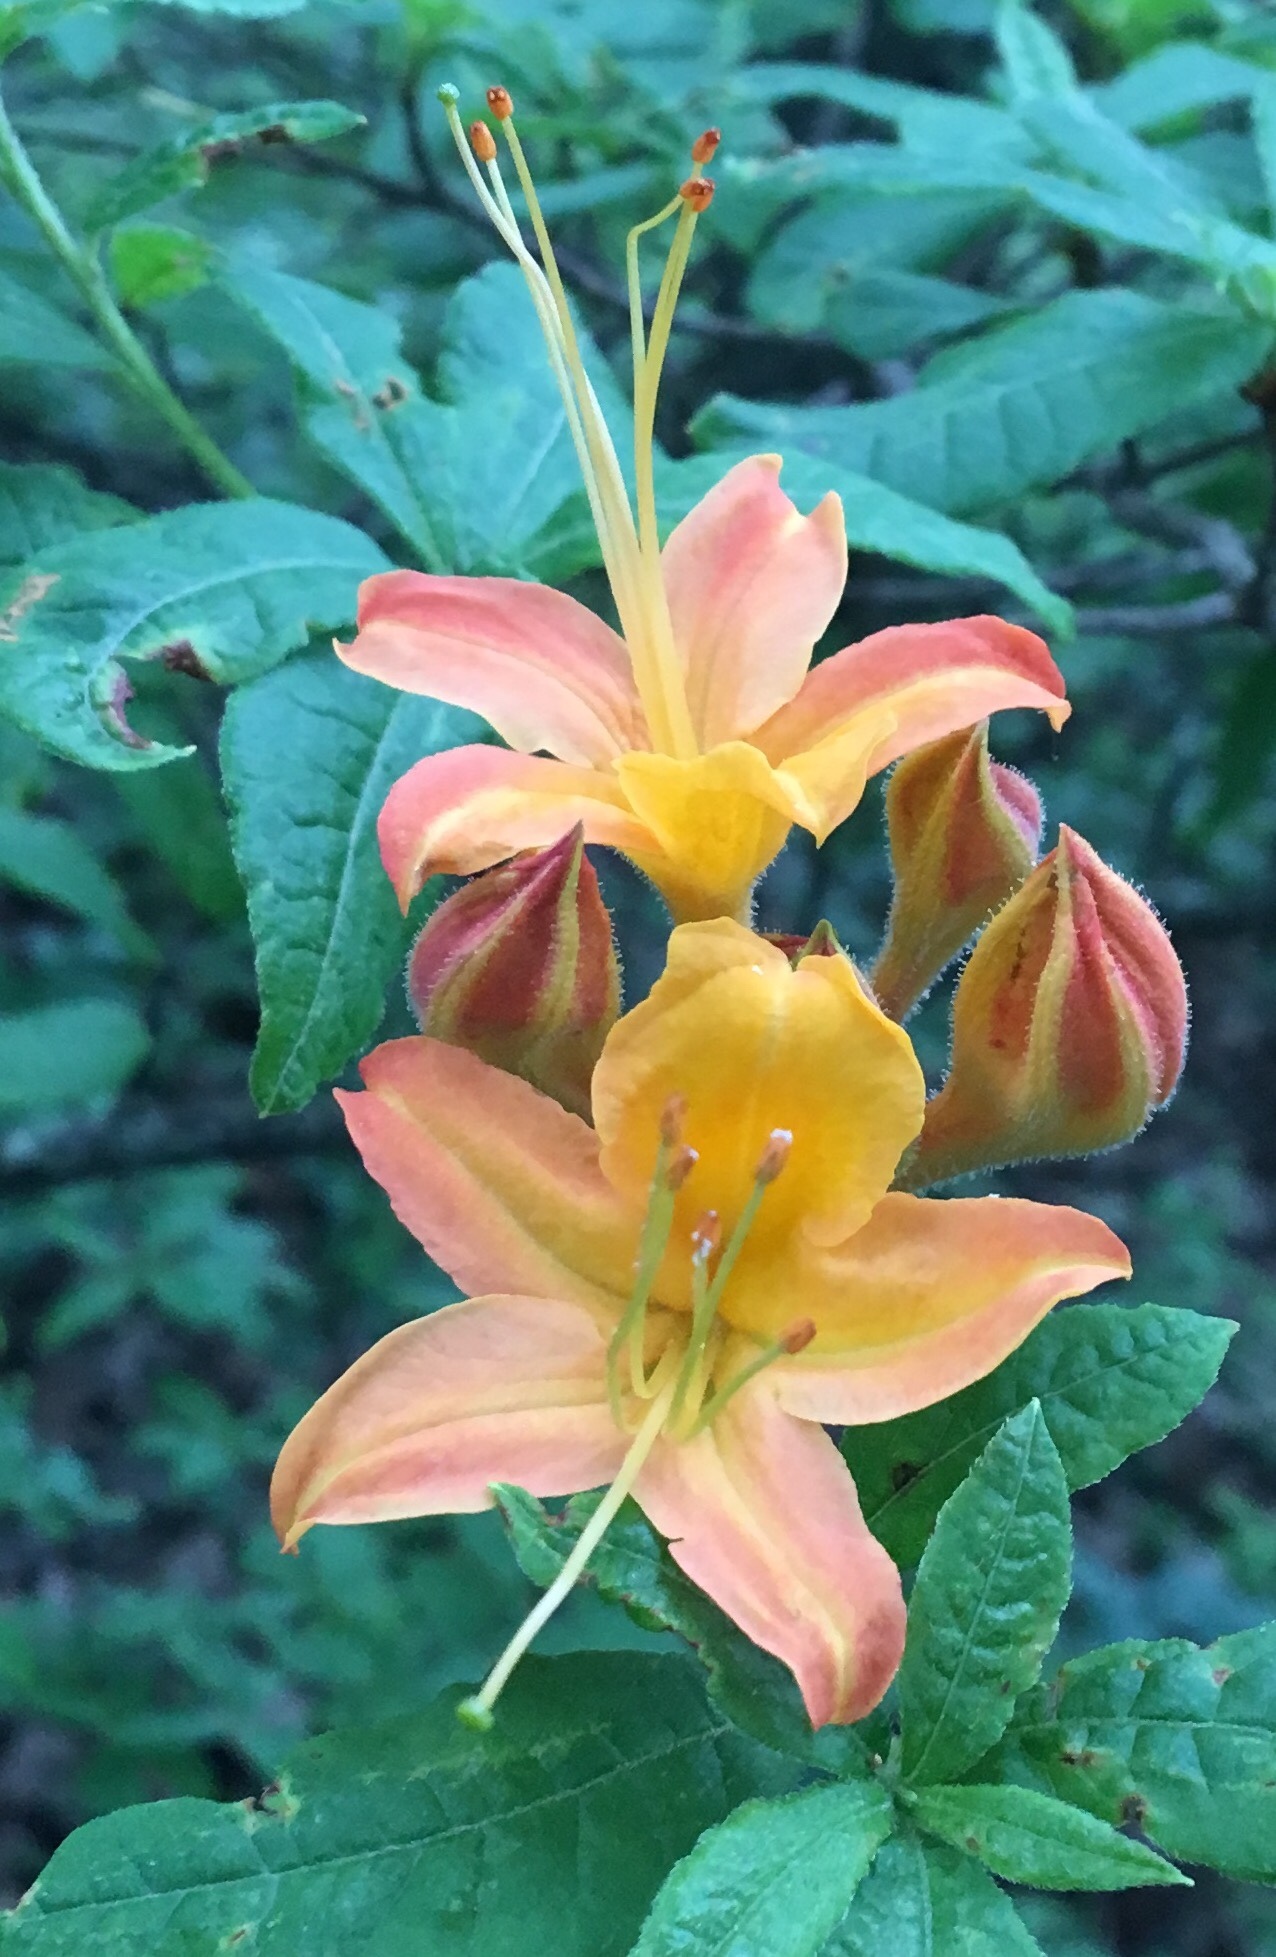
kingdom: Plantae
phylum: Tracheophyta
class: Magnoliopsida
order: Ericales
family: Ericaceae
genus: Rhododendron
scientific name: Rhododendron calendulaceum
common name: Flame azalea
